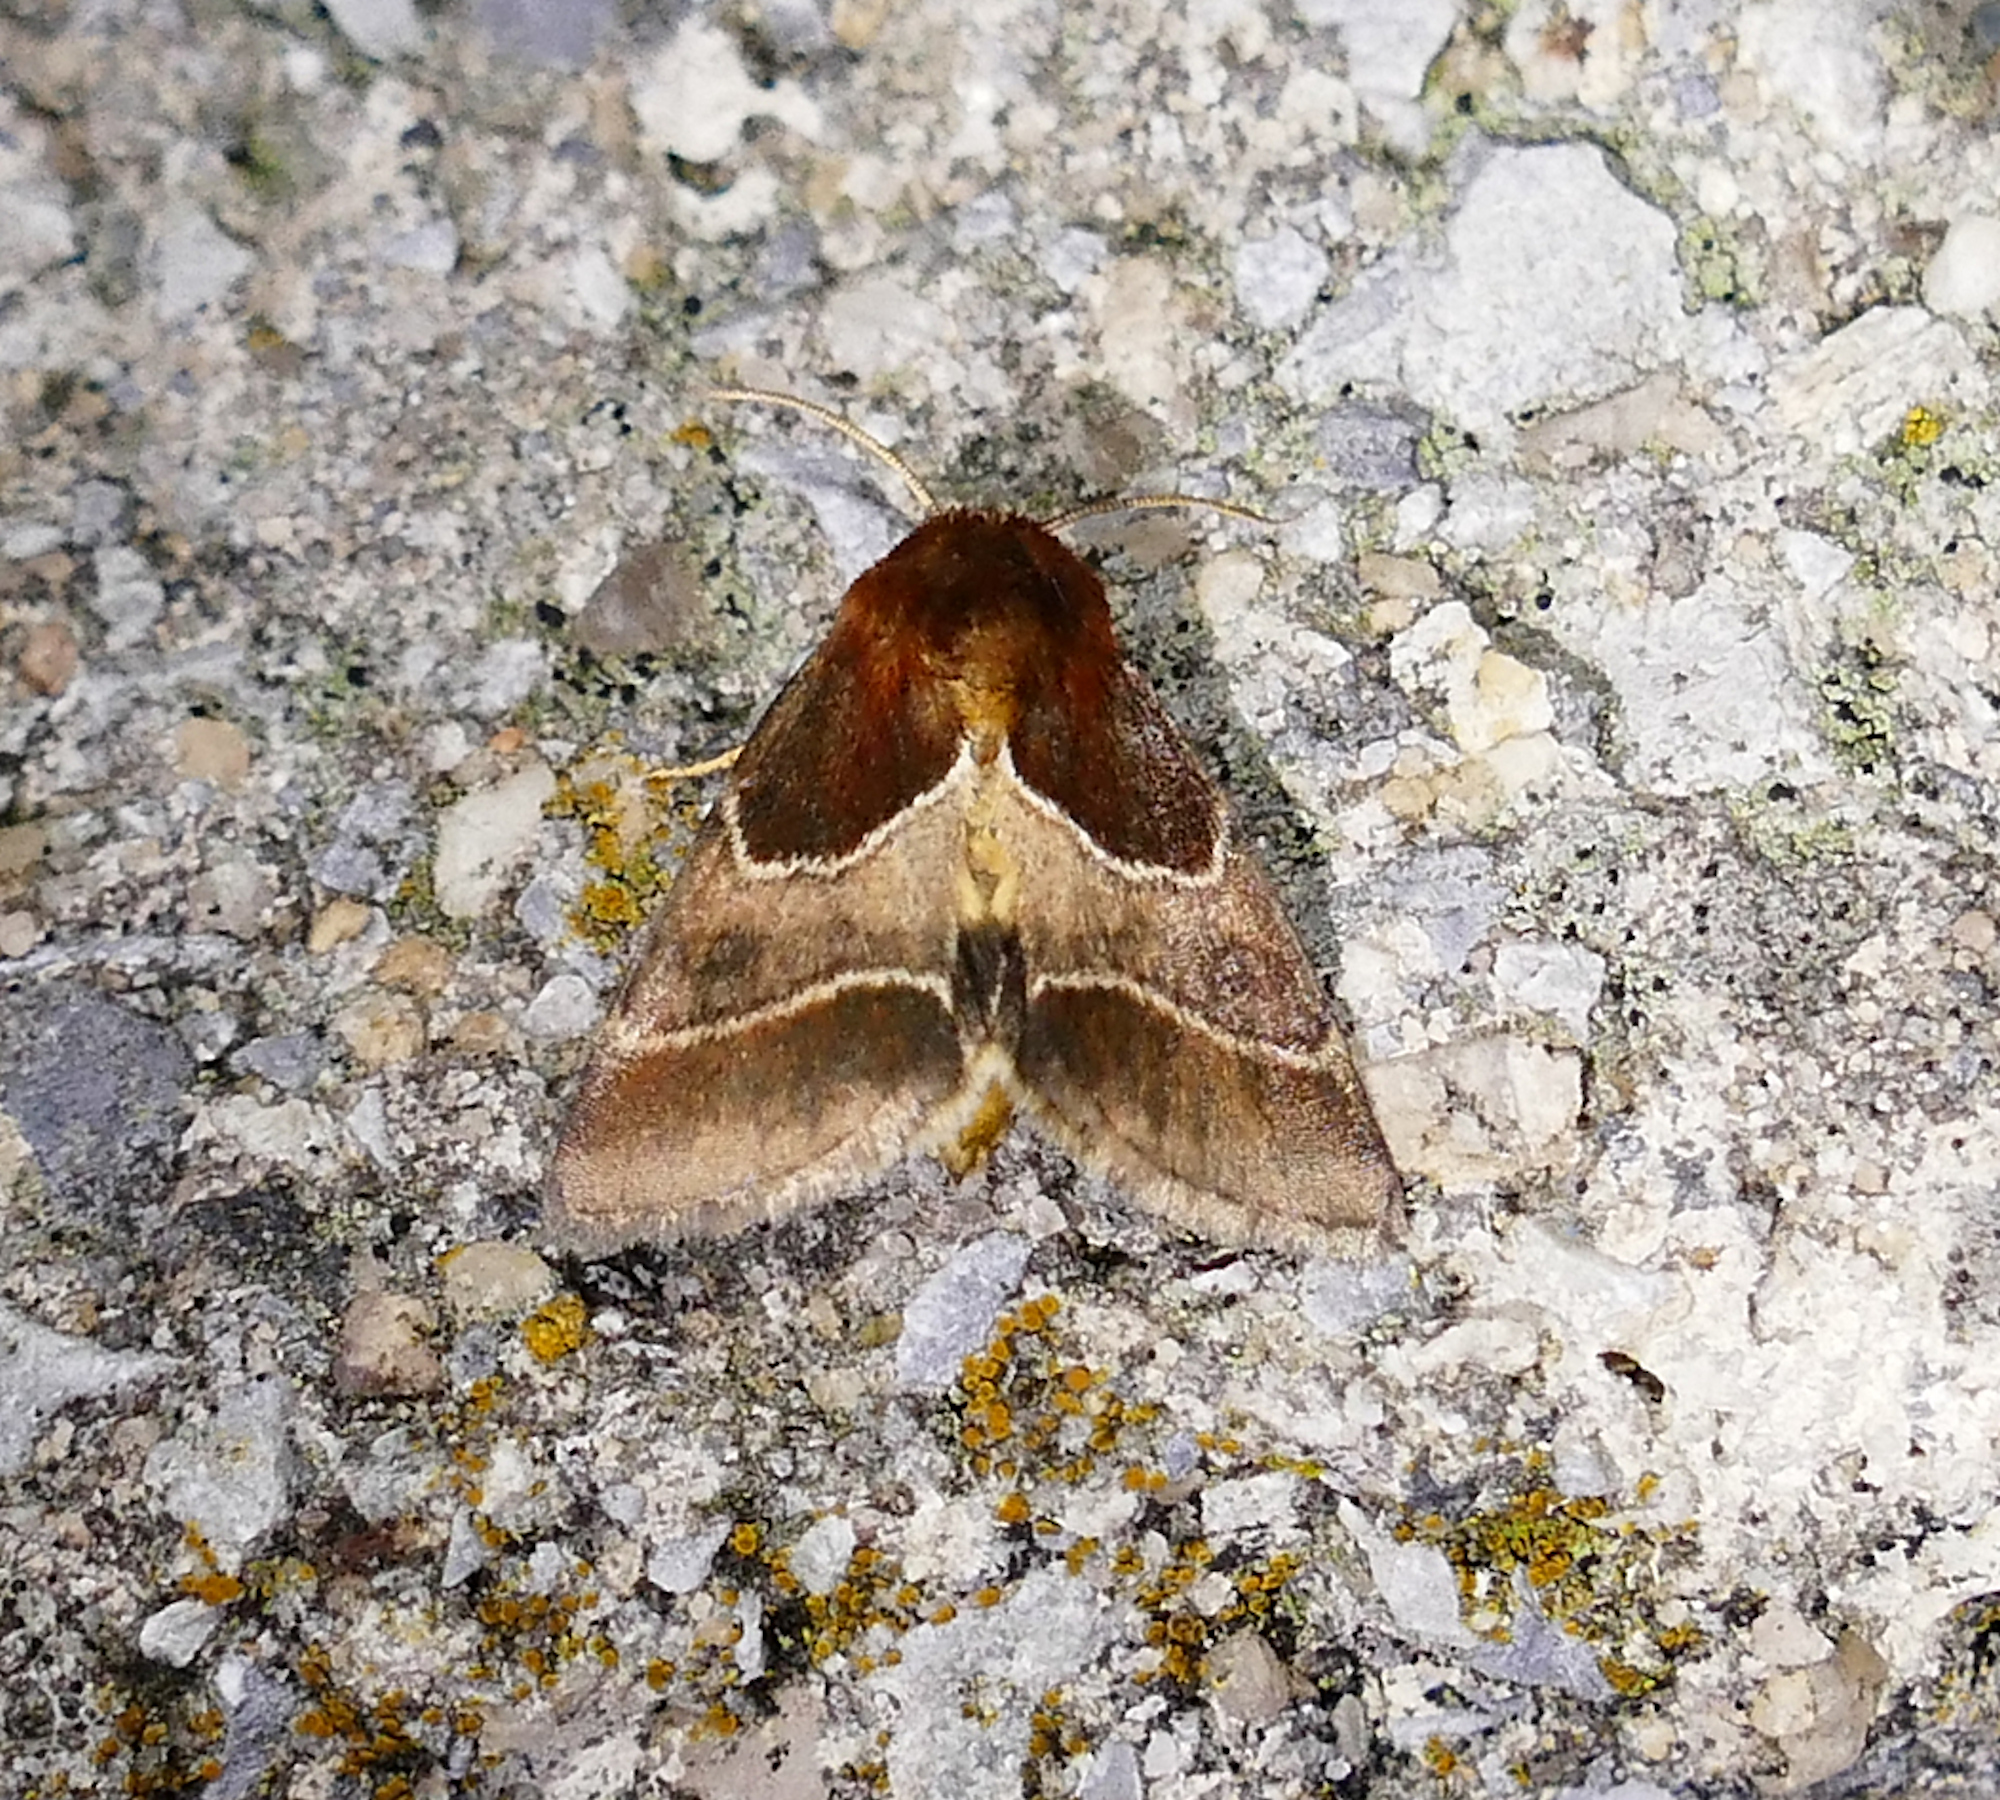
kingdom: Animalia
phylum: Arthropoda
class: Insecta
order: Lepidoptera
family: Noctuidae
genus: Schinia
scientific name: Schinia arcigera
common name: Arcigera flower moth
